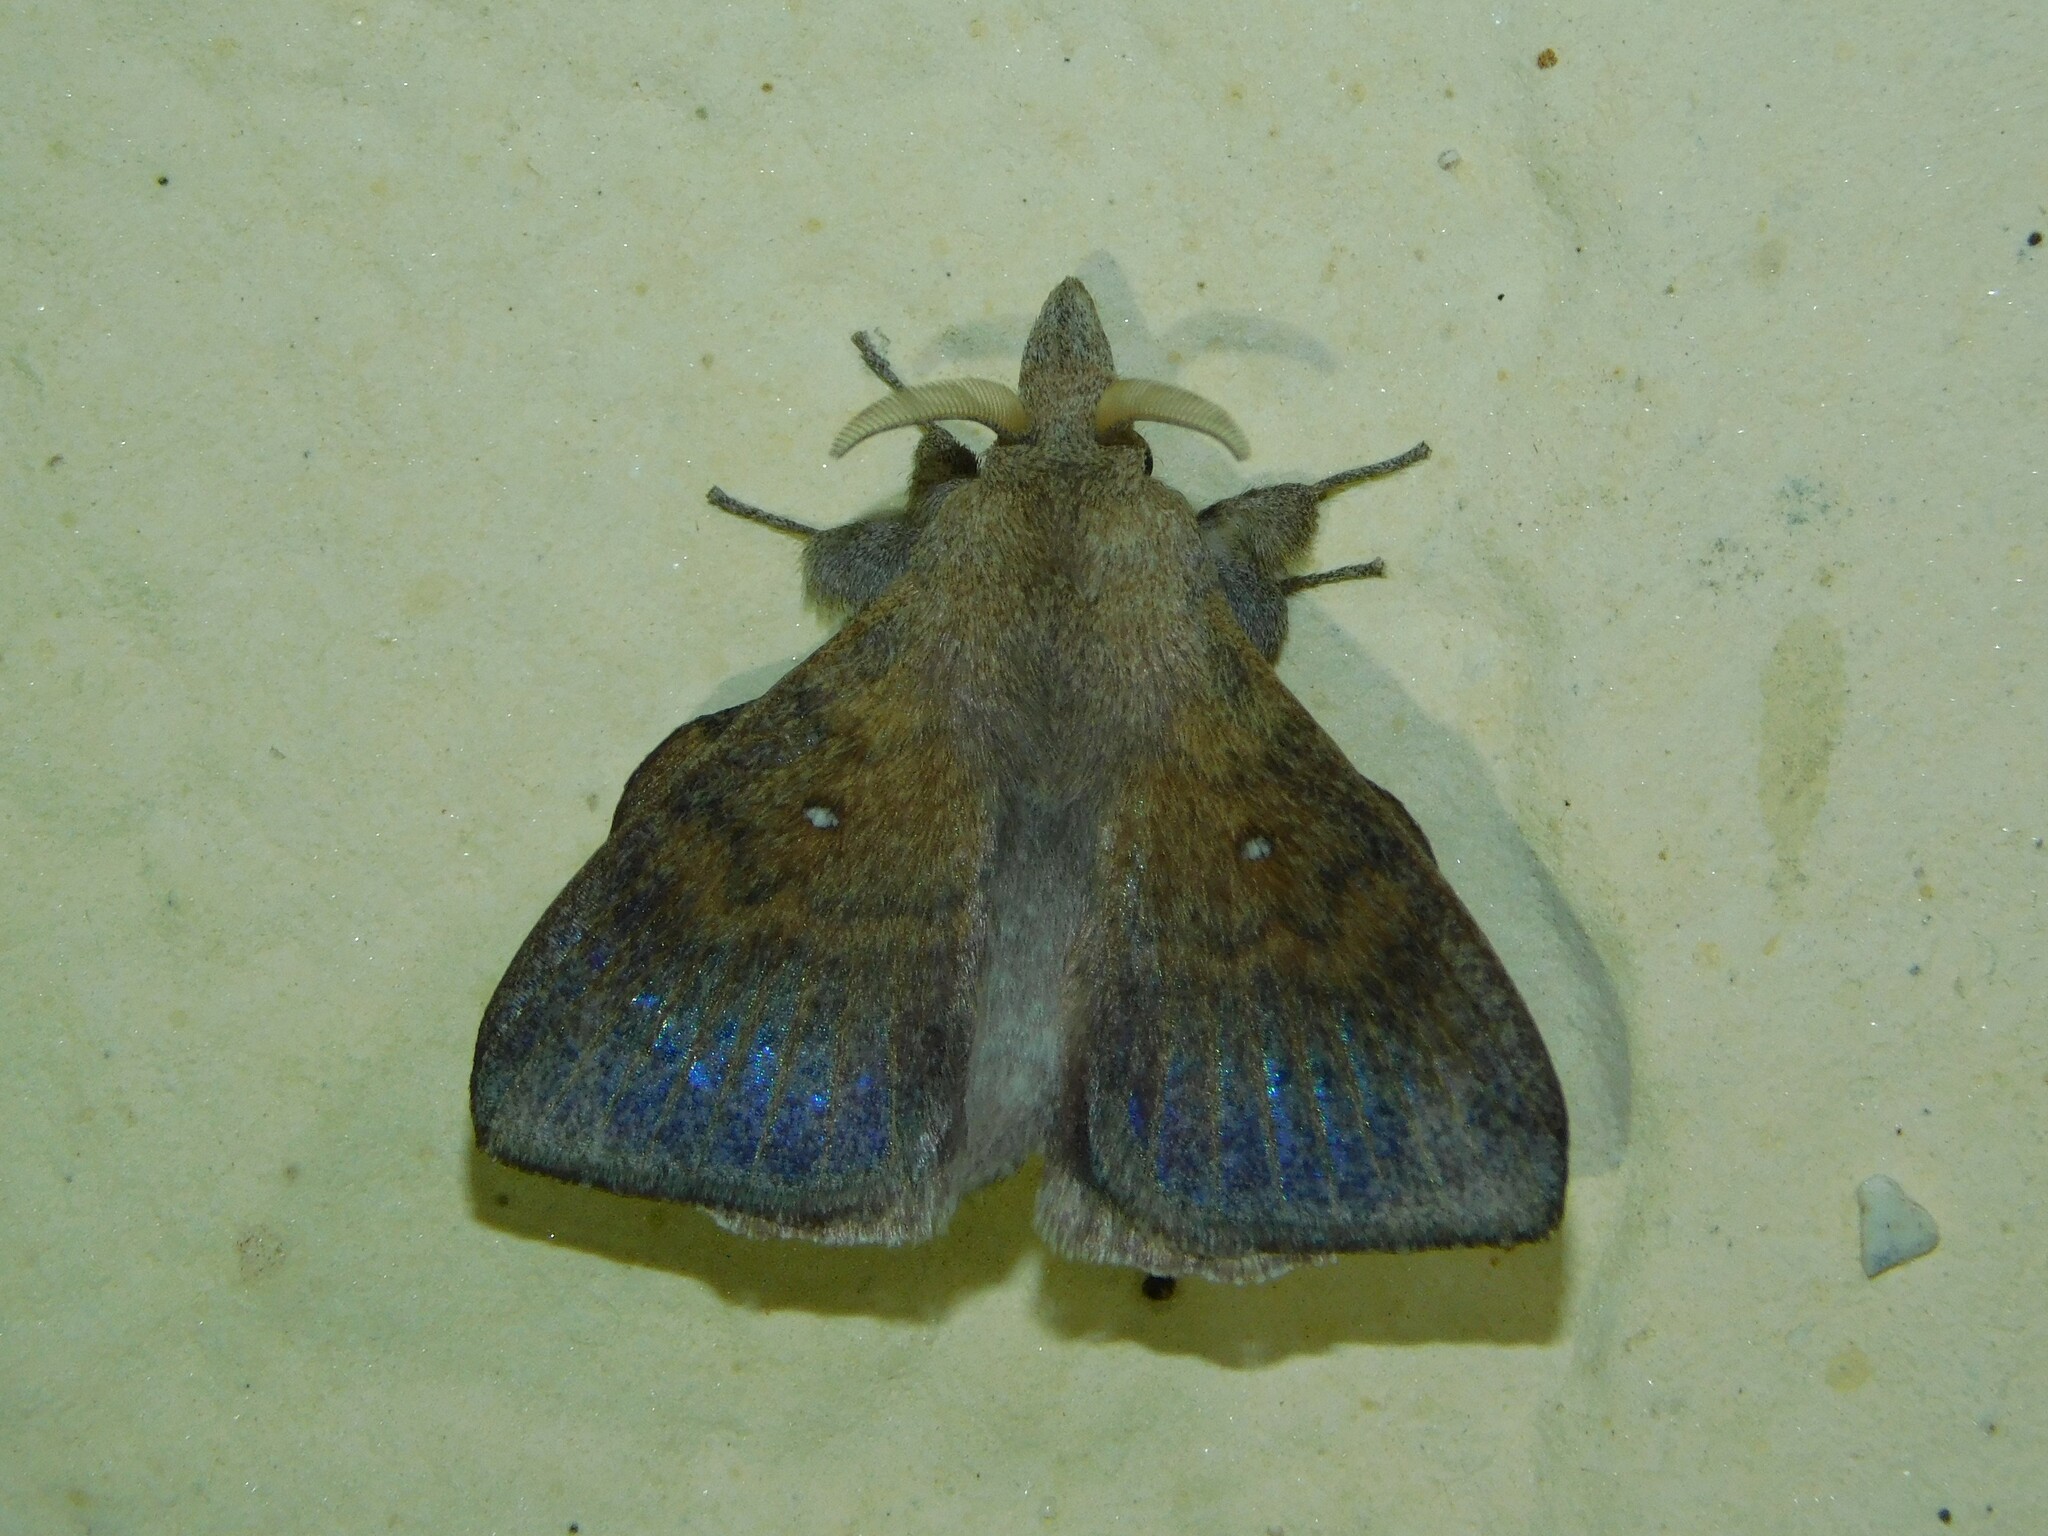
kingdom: Animalia
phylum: Arthropoda
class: Insecta
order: Lepidoptera
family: Lasiocampidae
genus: Leipoxais
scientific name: Leipoxais peraffinis
